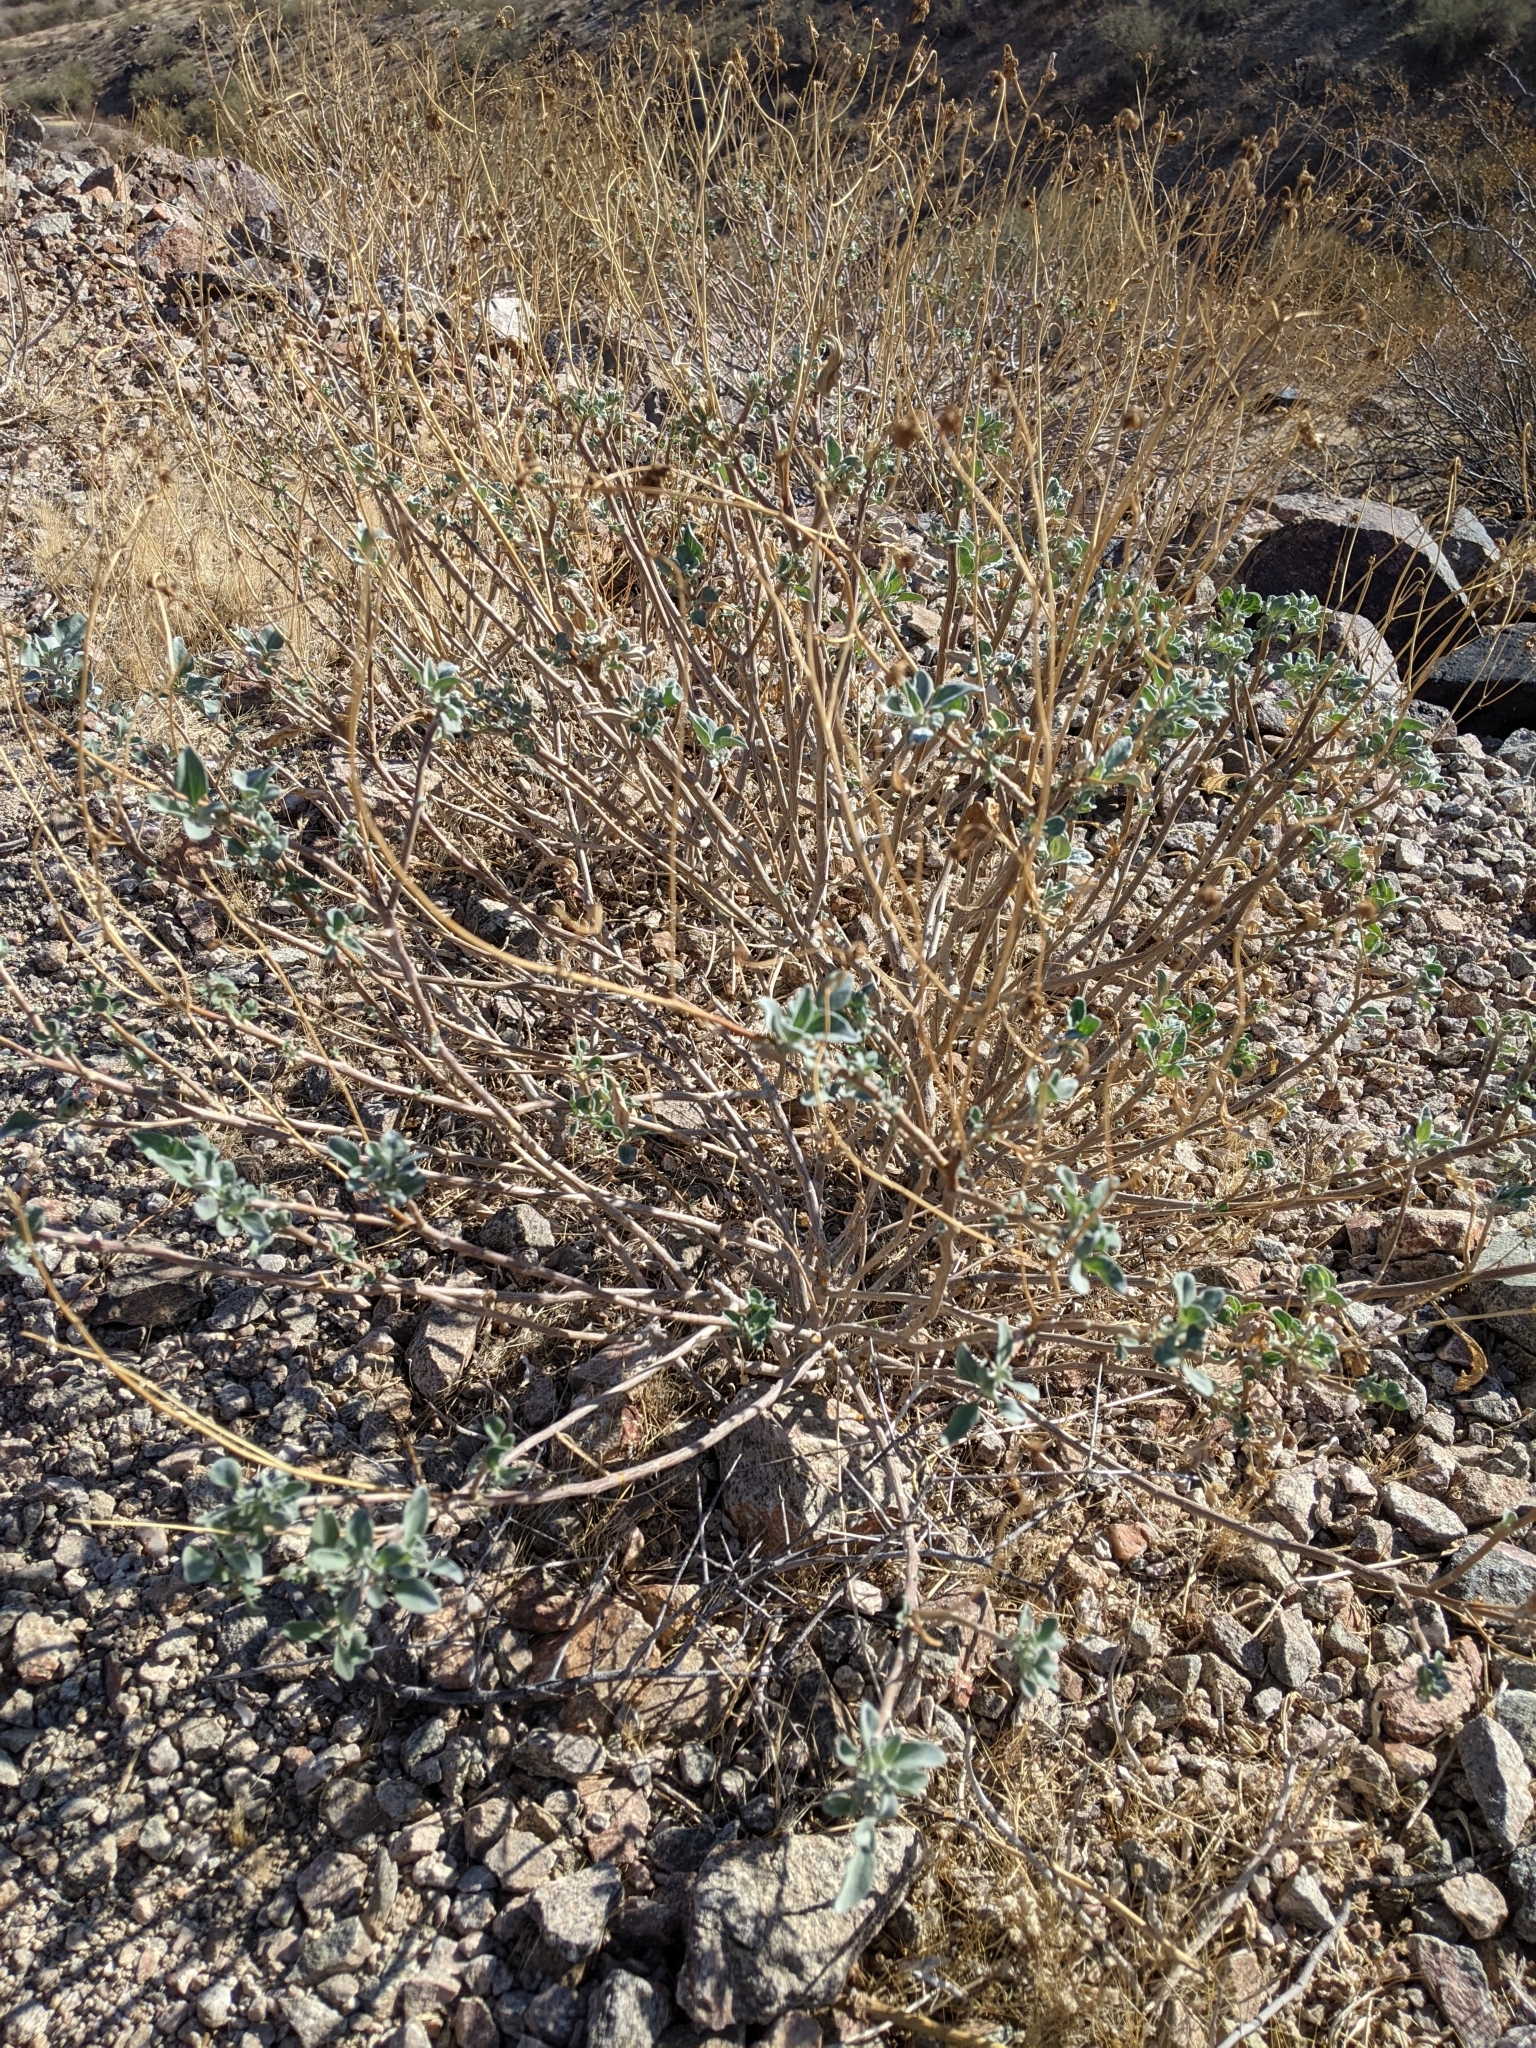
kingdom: Plantae
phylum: Tracheophyta
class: Magnoliopsida
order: Asterales
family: Asteraceae
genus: Encelia
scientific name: Encelia farinosa
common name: Brittlebush
